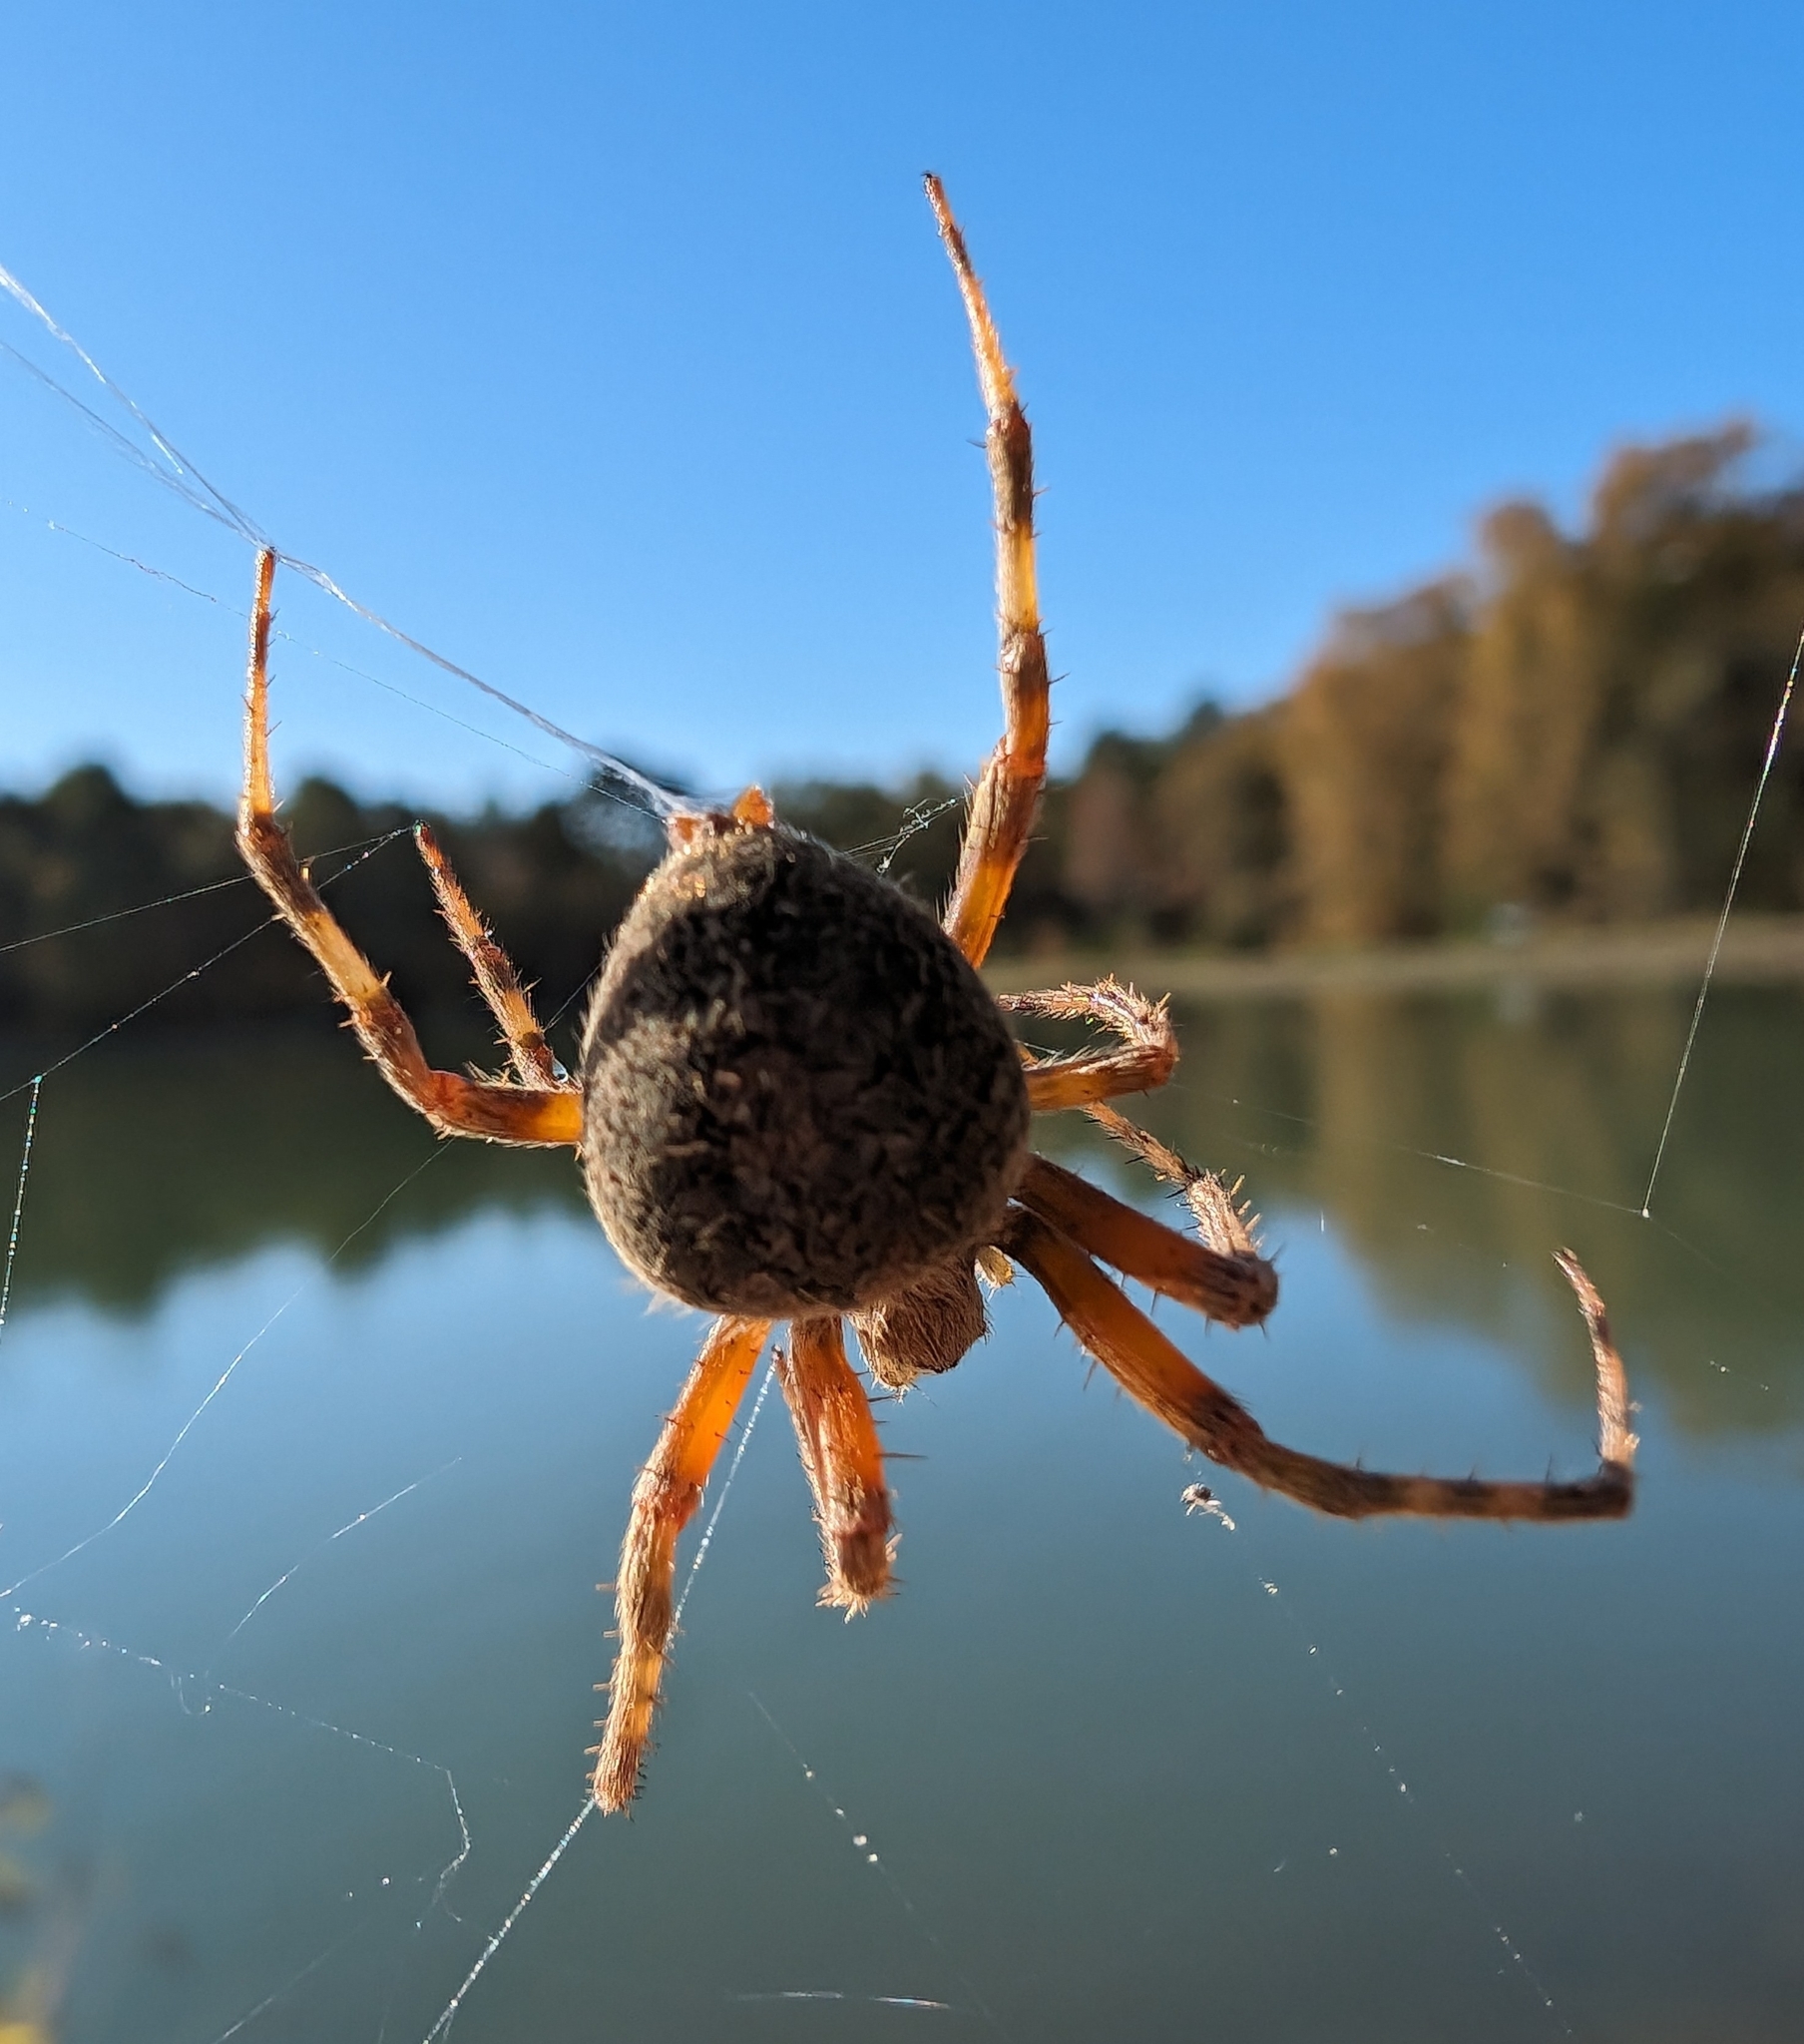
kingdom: Animalia
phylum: Arthropoda
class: Arachnida
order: Araneae
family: Araneidae
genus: Neoscona
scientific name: Neoscona crucifera
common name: Spotted orbweaver
